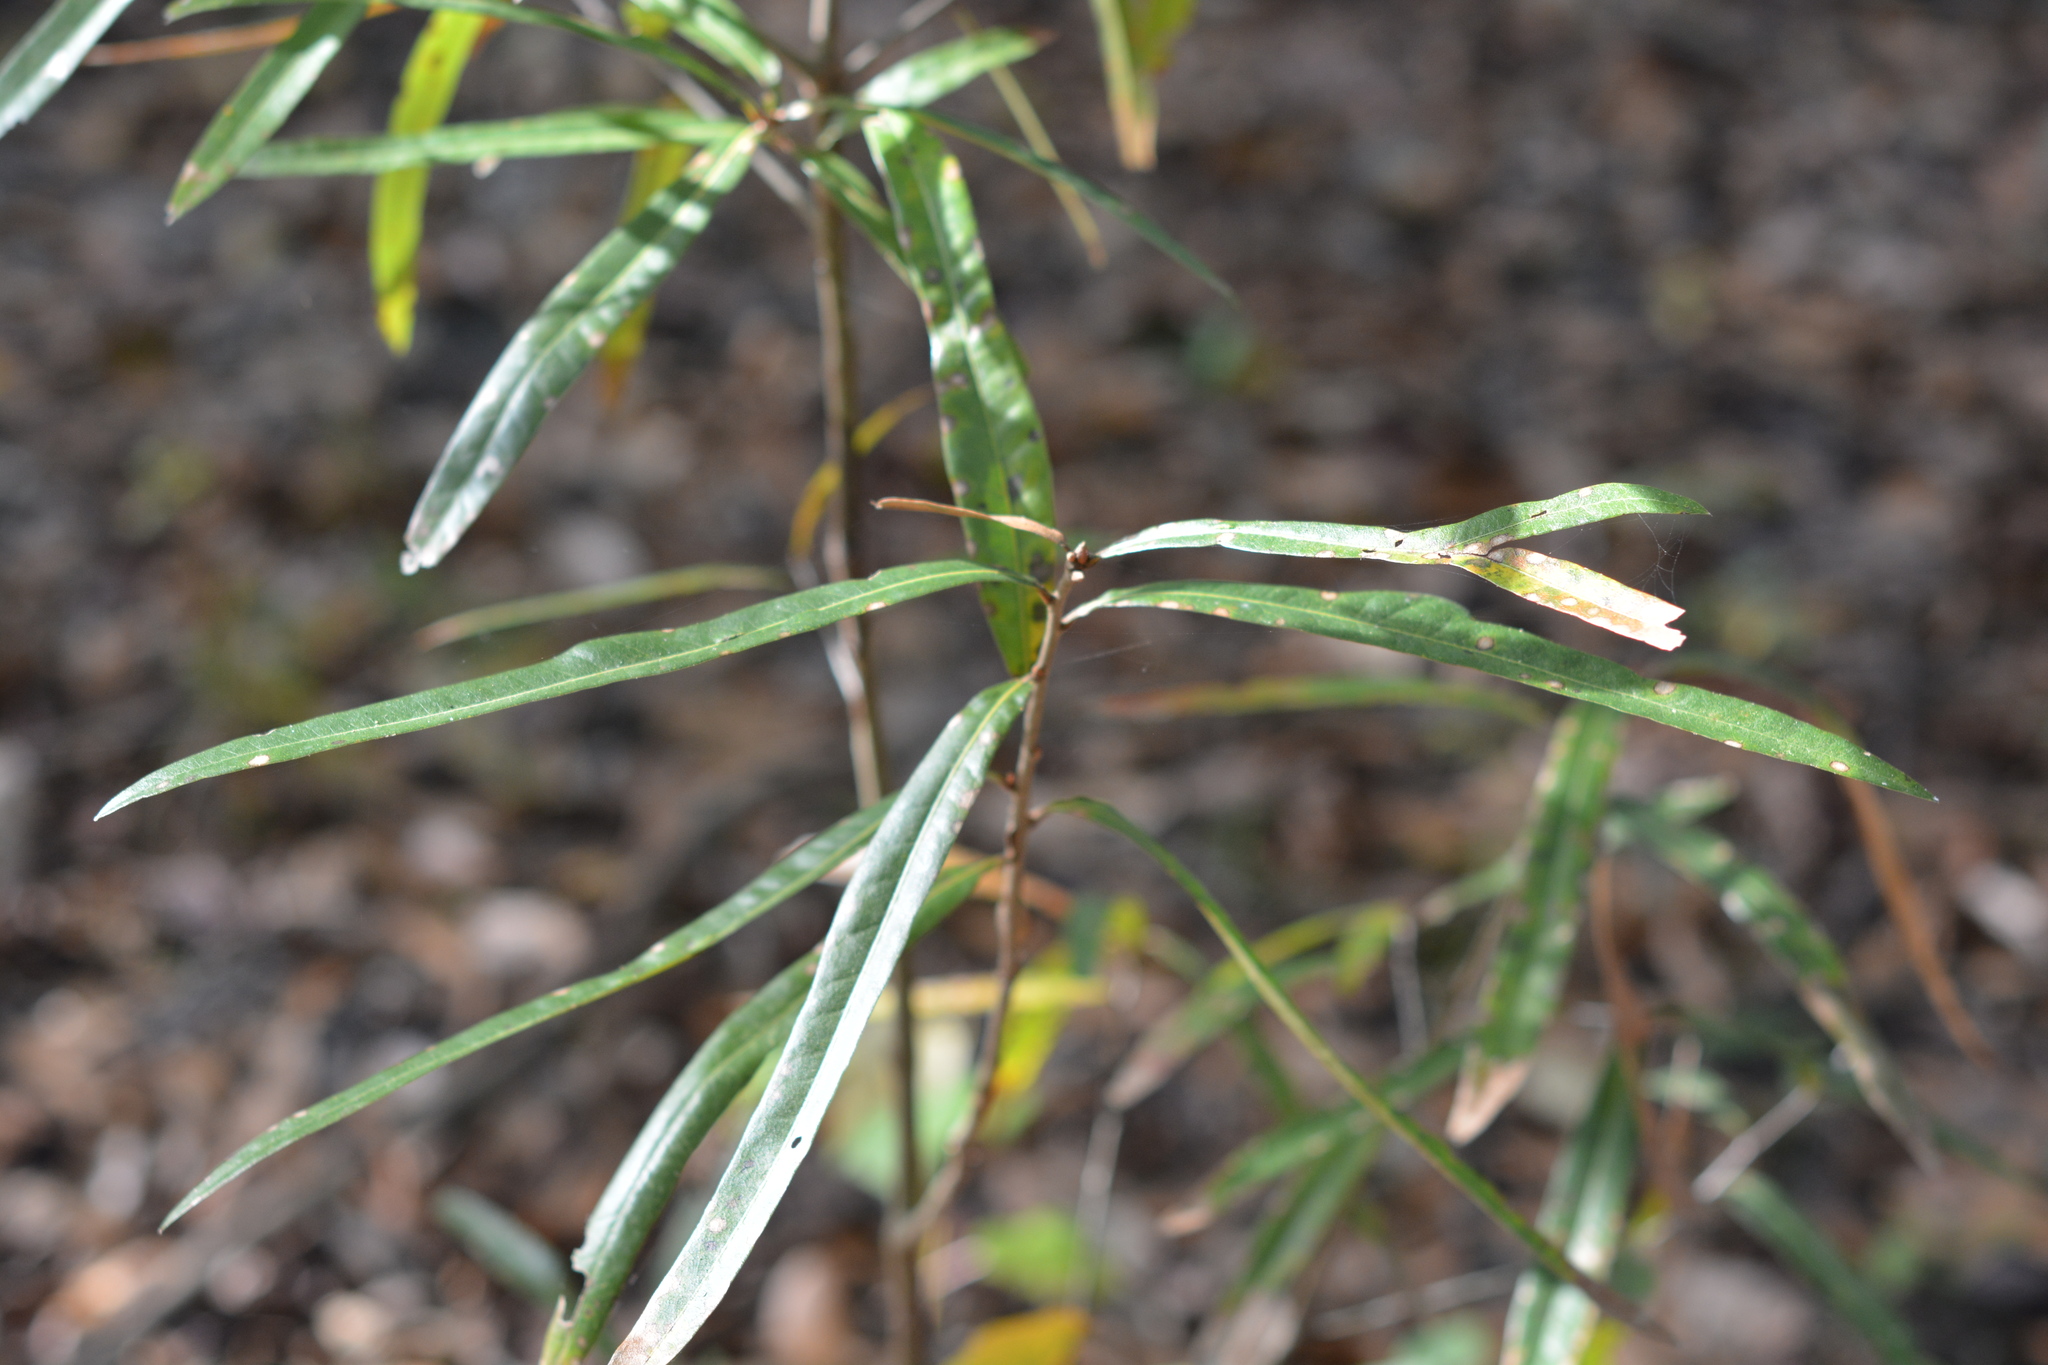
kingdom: Plantae
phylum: Tracheophyta
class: Magnoliopsida
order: Fagales
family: Fagaceae
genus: Quercus
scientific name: Quercus phellos
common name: Willow oak
